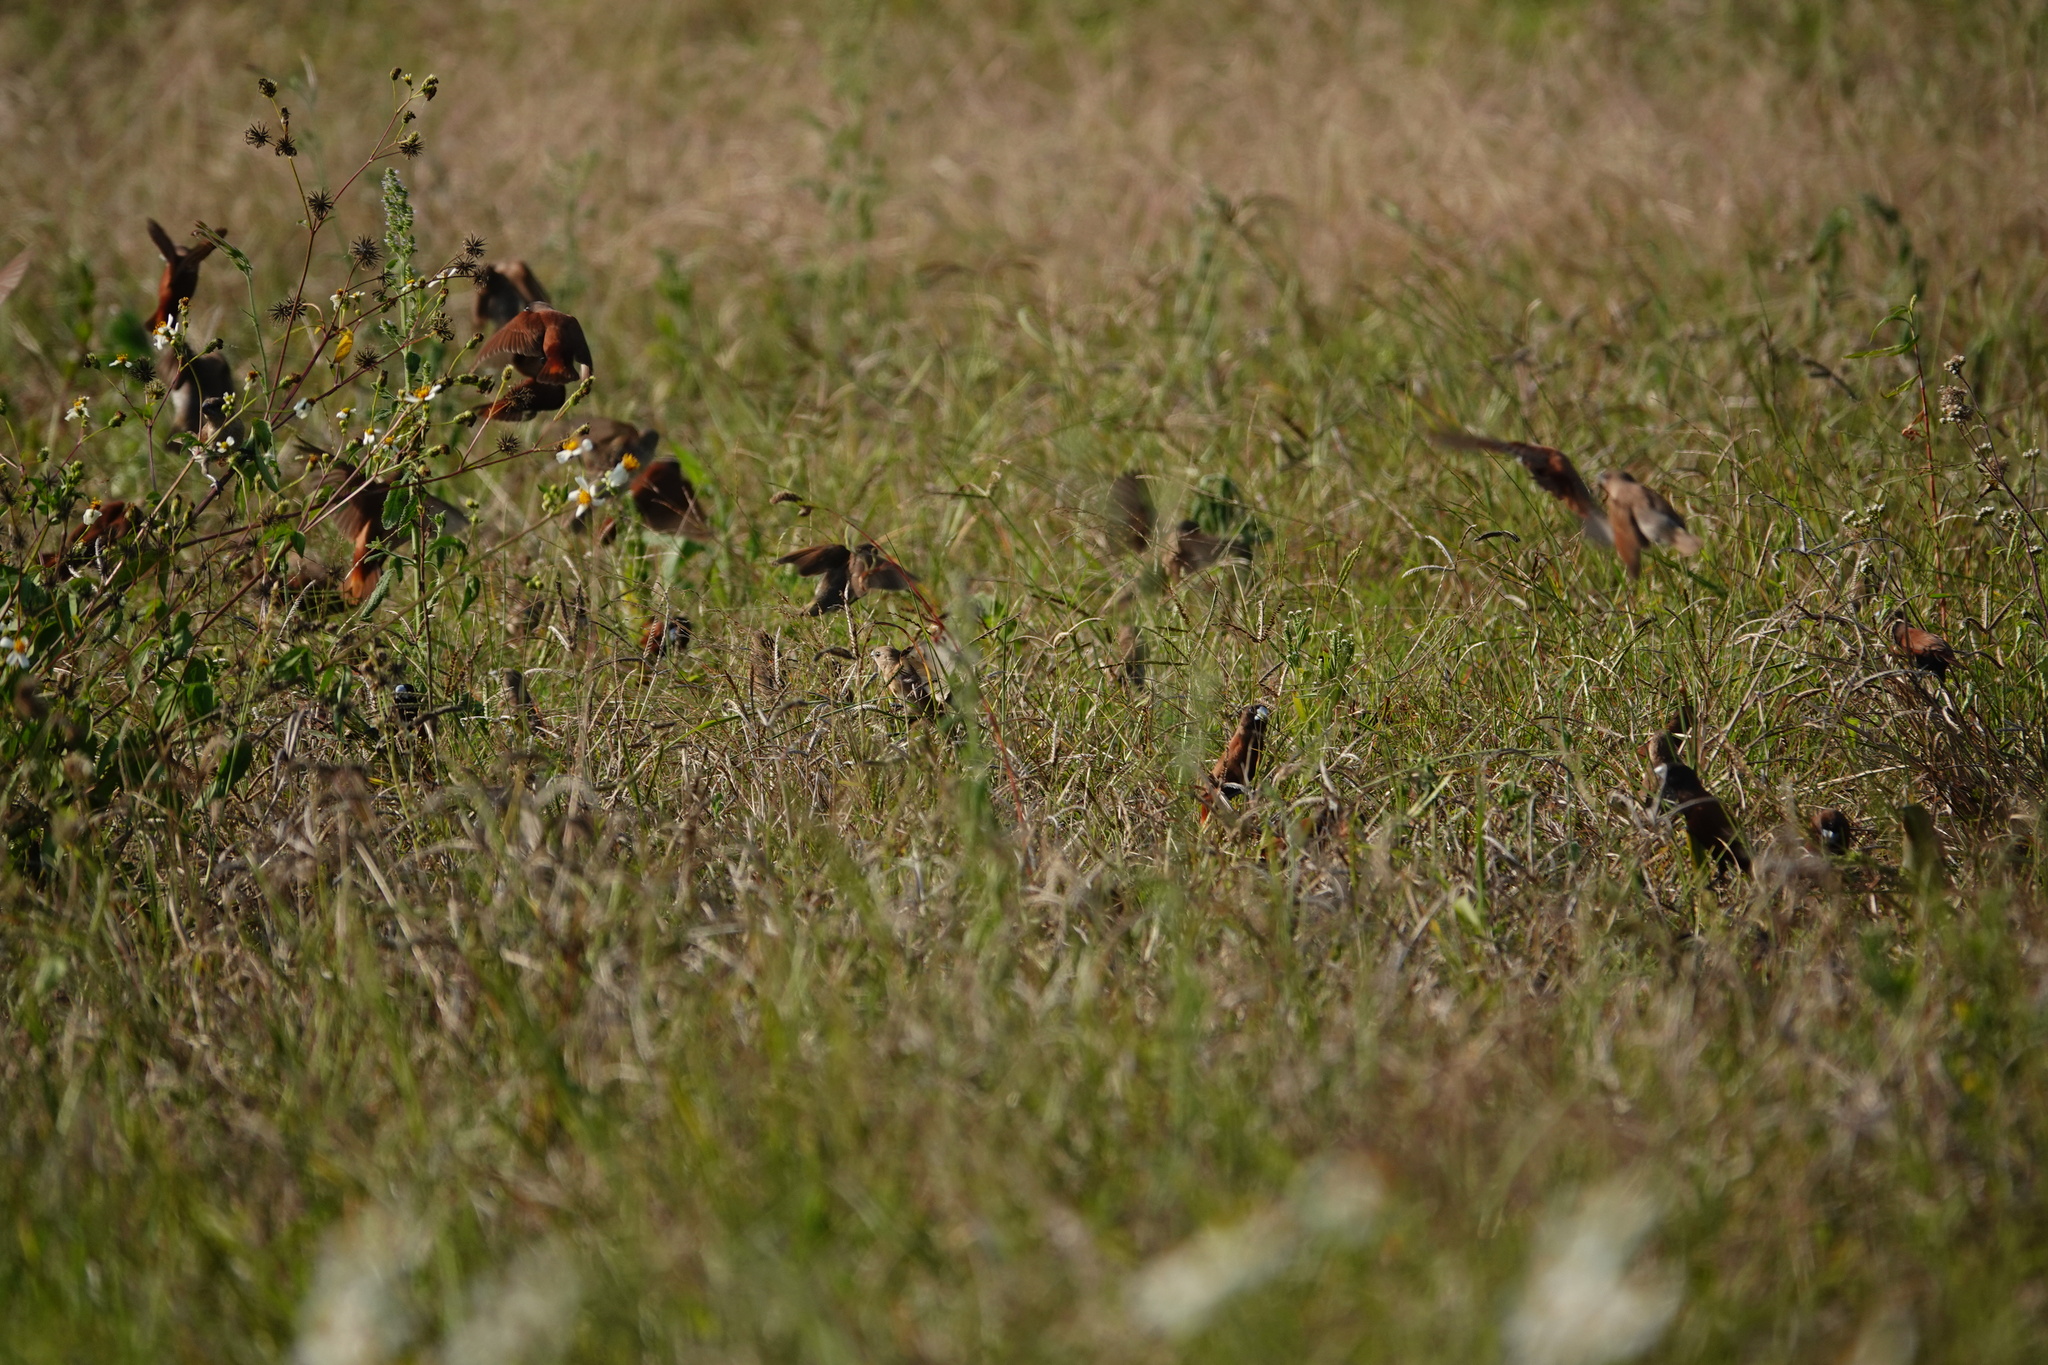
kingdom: Animalia
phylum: Chordata
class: Aves
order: Passeriformes
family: Estrildidae
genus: Lonchura
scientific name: Lonchura atricapilla
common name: Chestnut munia
